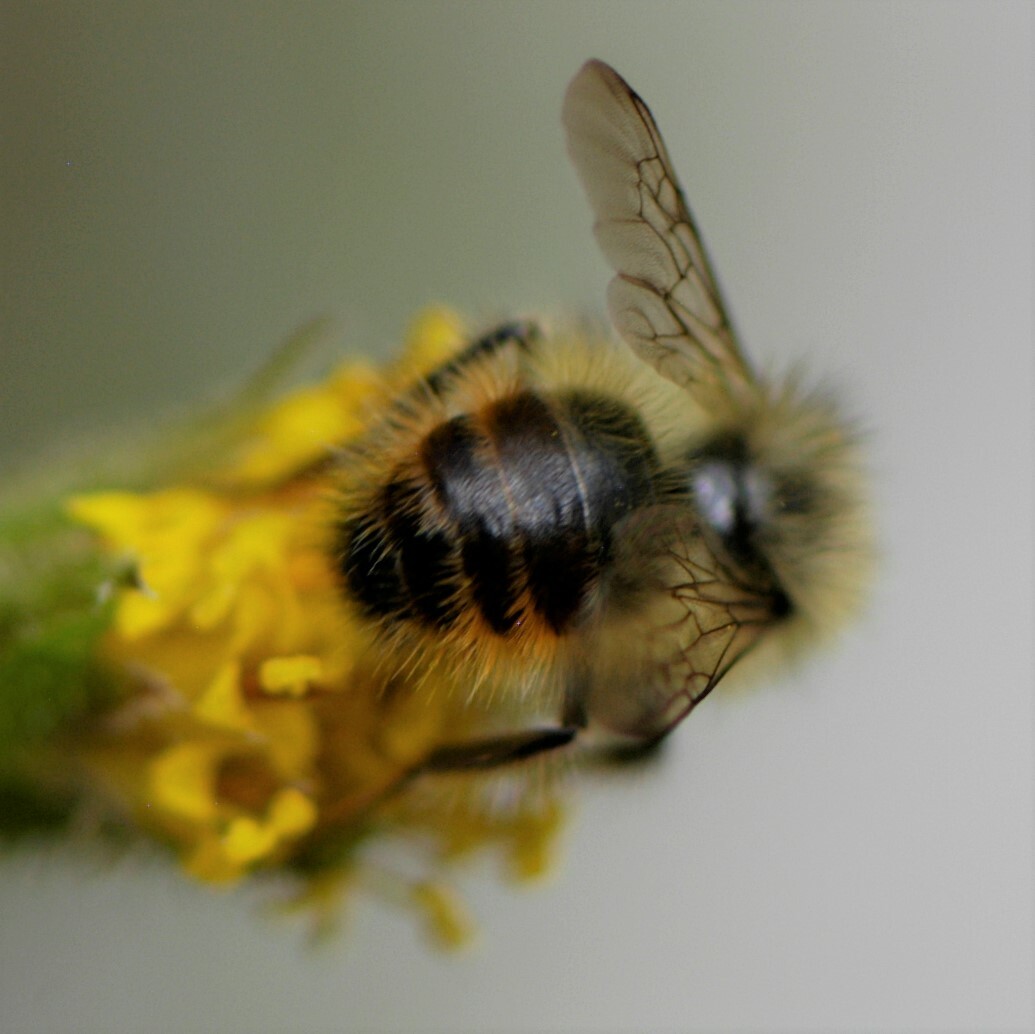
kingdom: Animalia
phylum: Arthropoda
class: Insecta
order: Hymenoptera
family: Apidae
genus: Bombus
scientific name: Bombus mixtus
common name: Fuzzy-horned bumble bee
